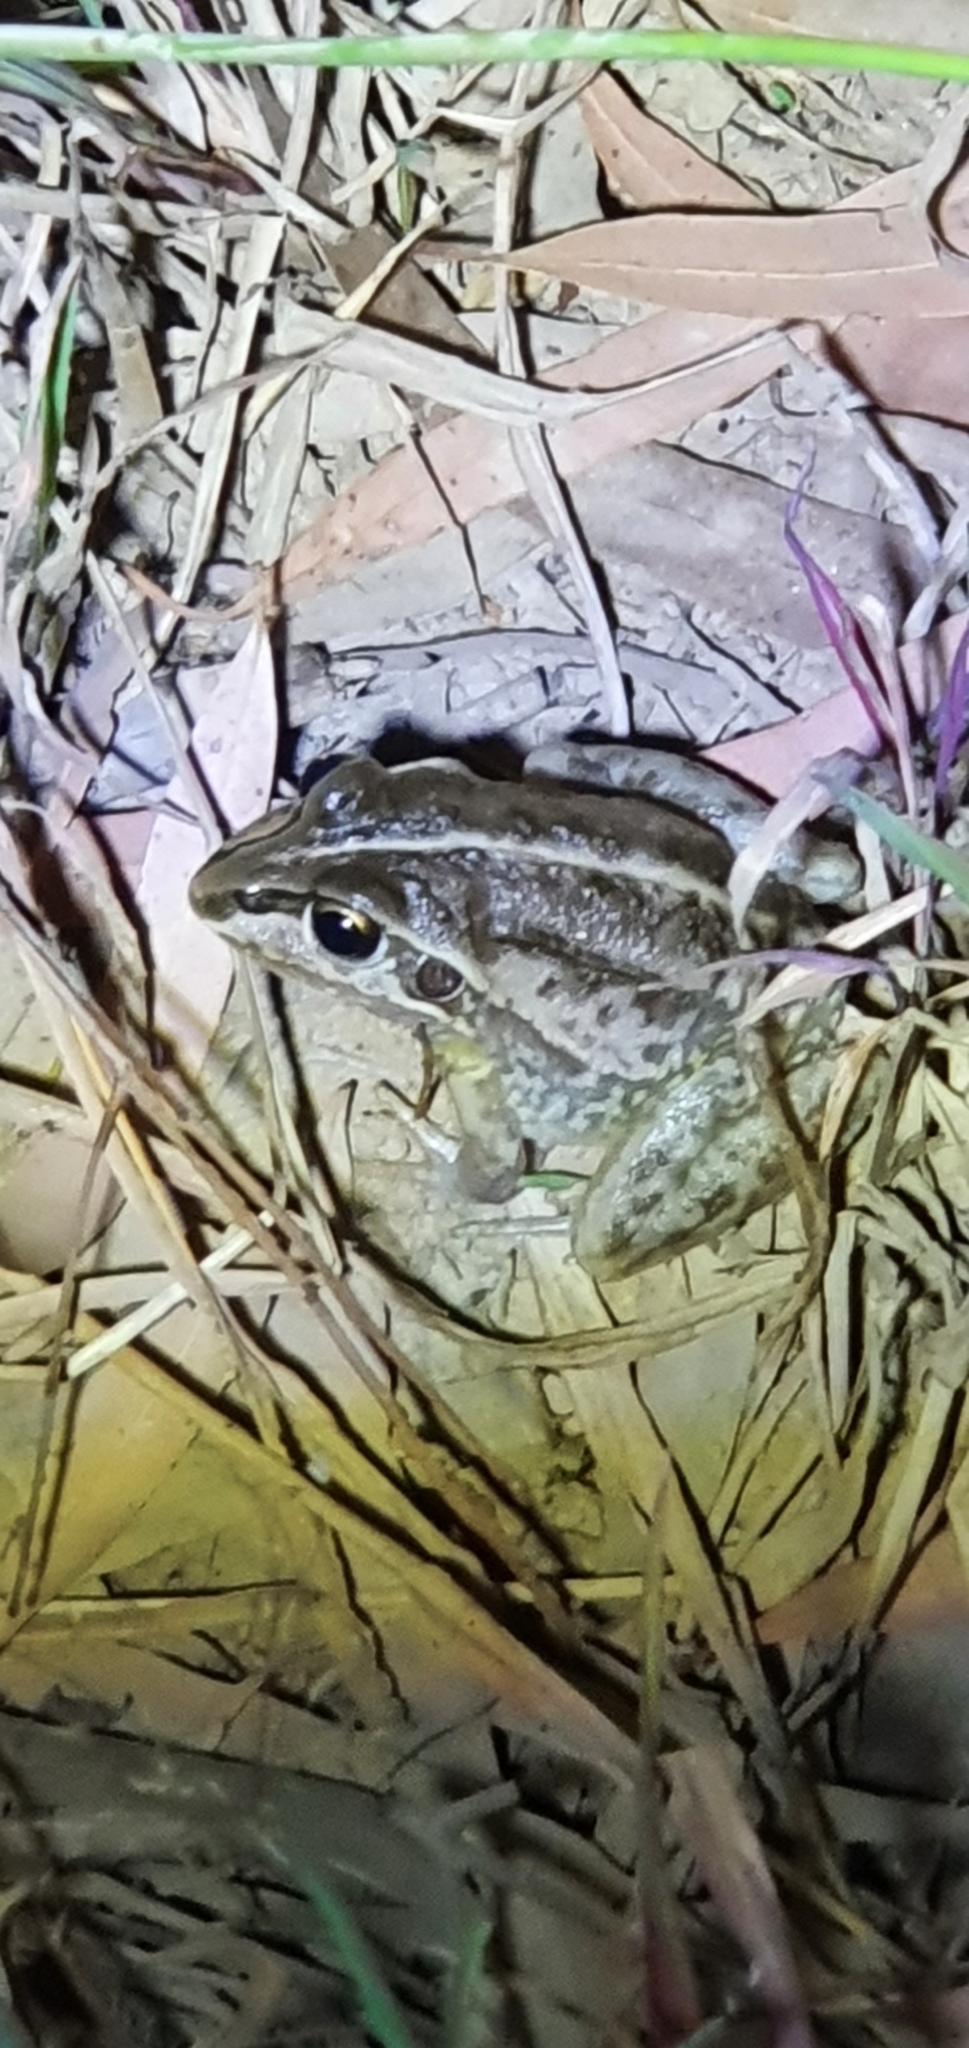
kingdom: Animalia
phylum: Chordata
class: Amphibia
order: Anura
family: Pelodryadidae
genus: Ranoidea
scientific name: Ranoidea alboguttata
